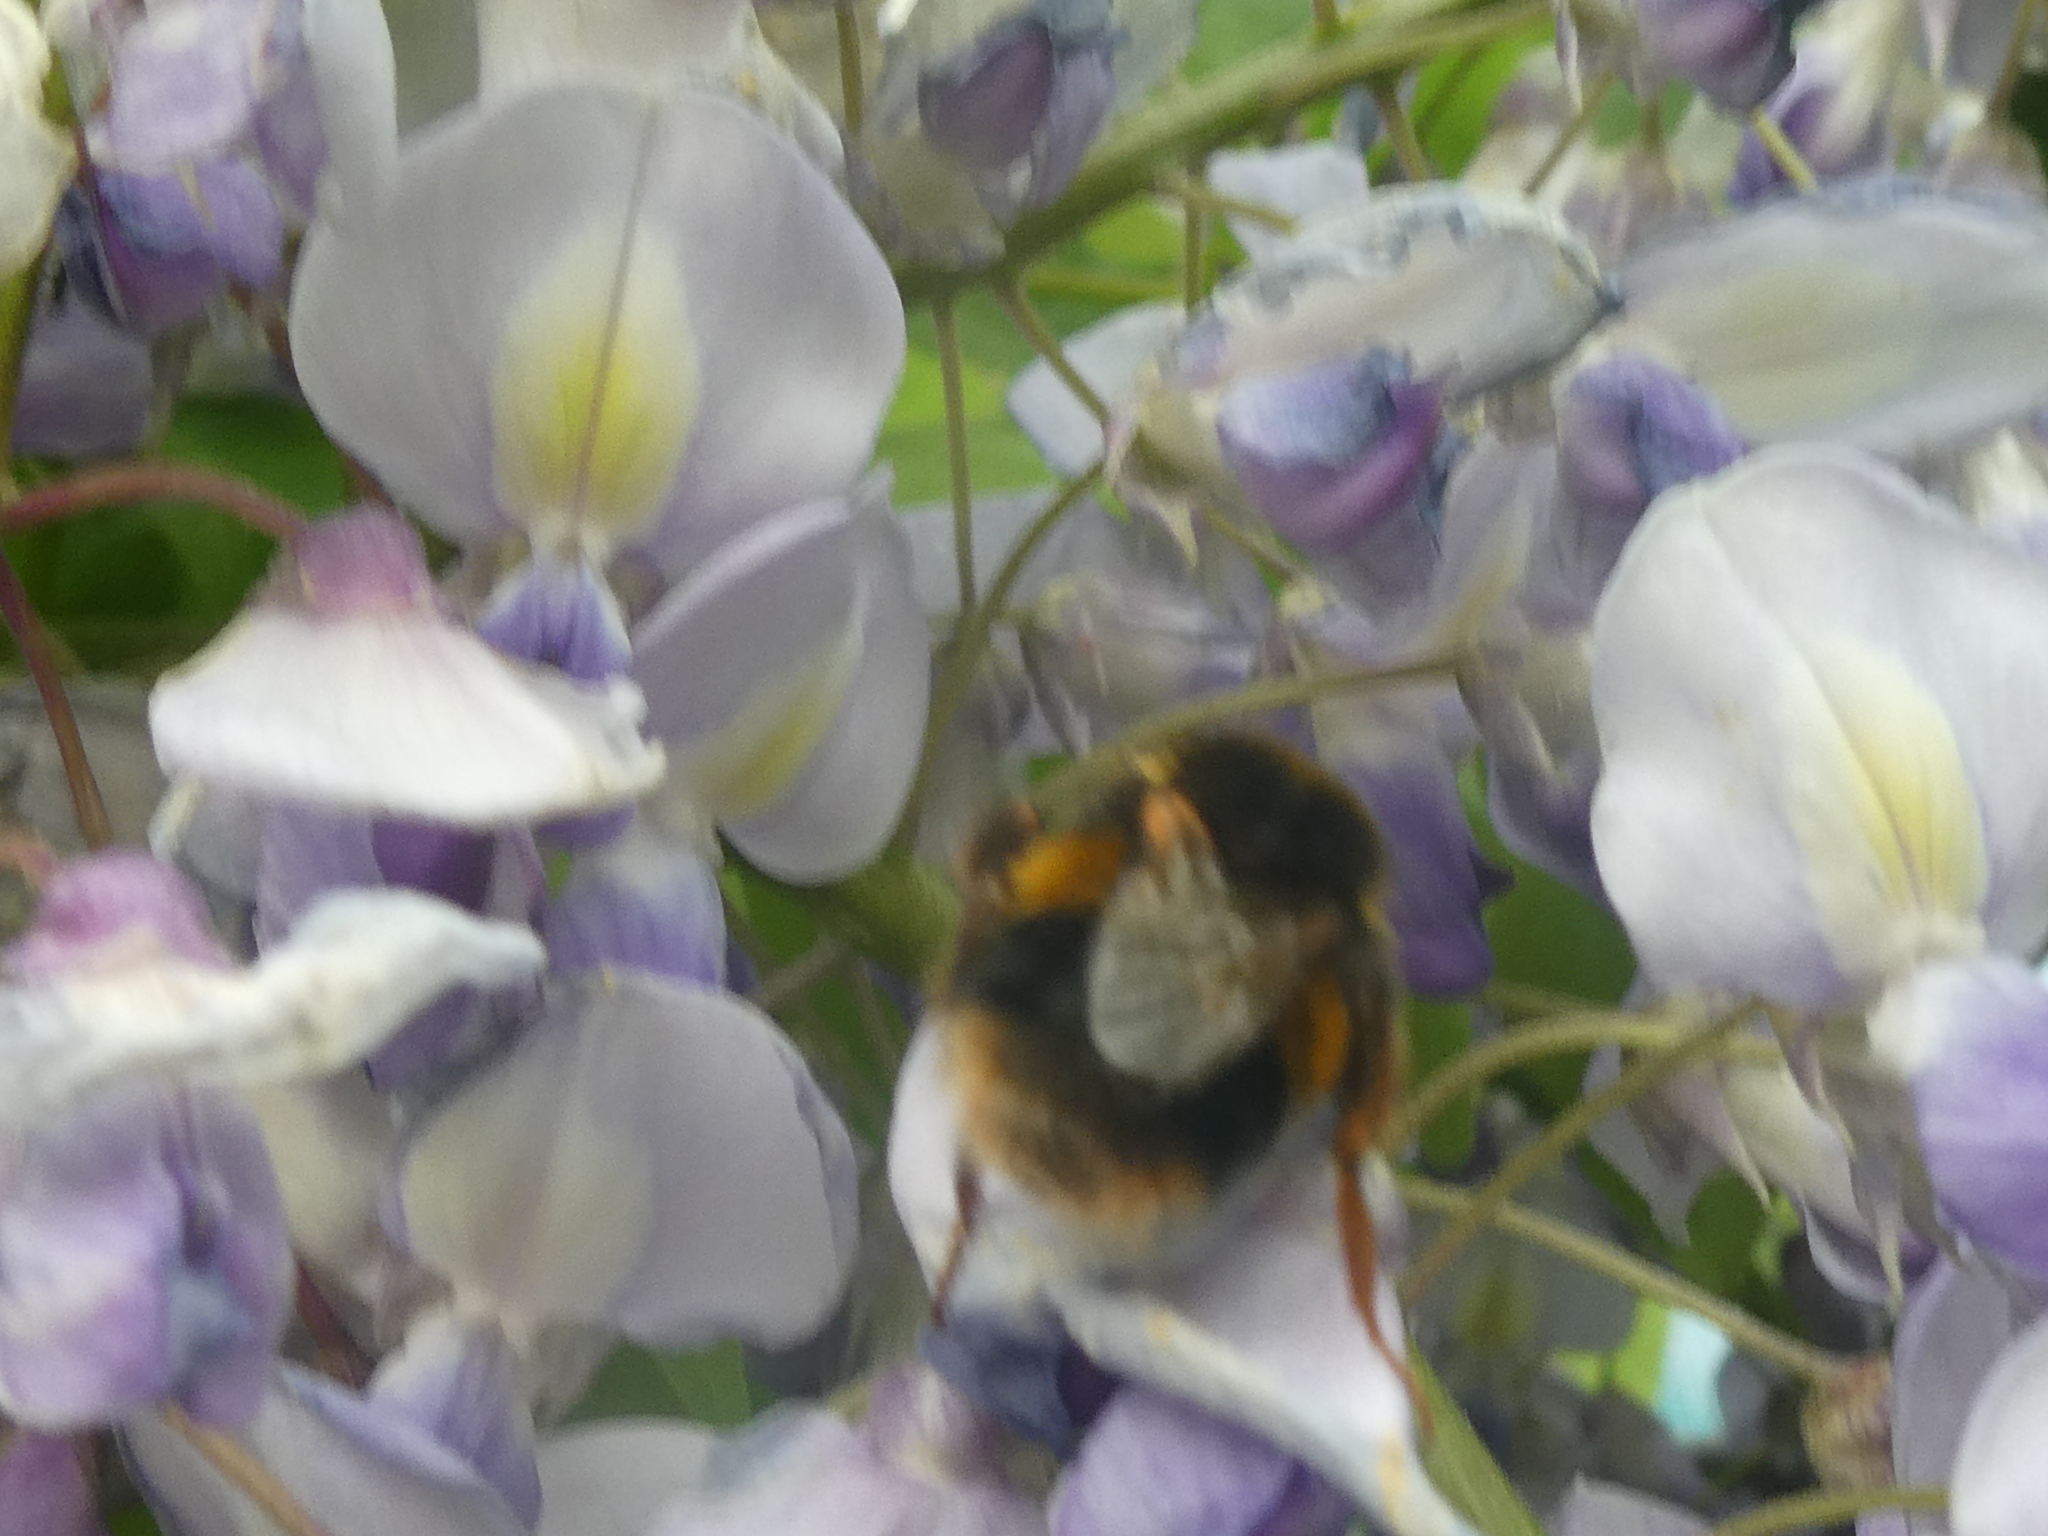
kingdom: Animalia
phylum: Arthropoda
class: Insecta
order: Hymenoptera
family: Apidae
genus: Bombus
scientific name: Bombus terrestris
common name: Buff-tailed bumblebee
